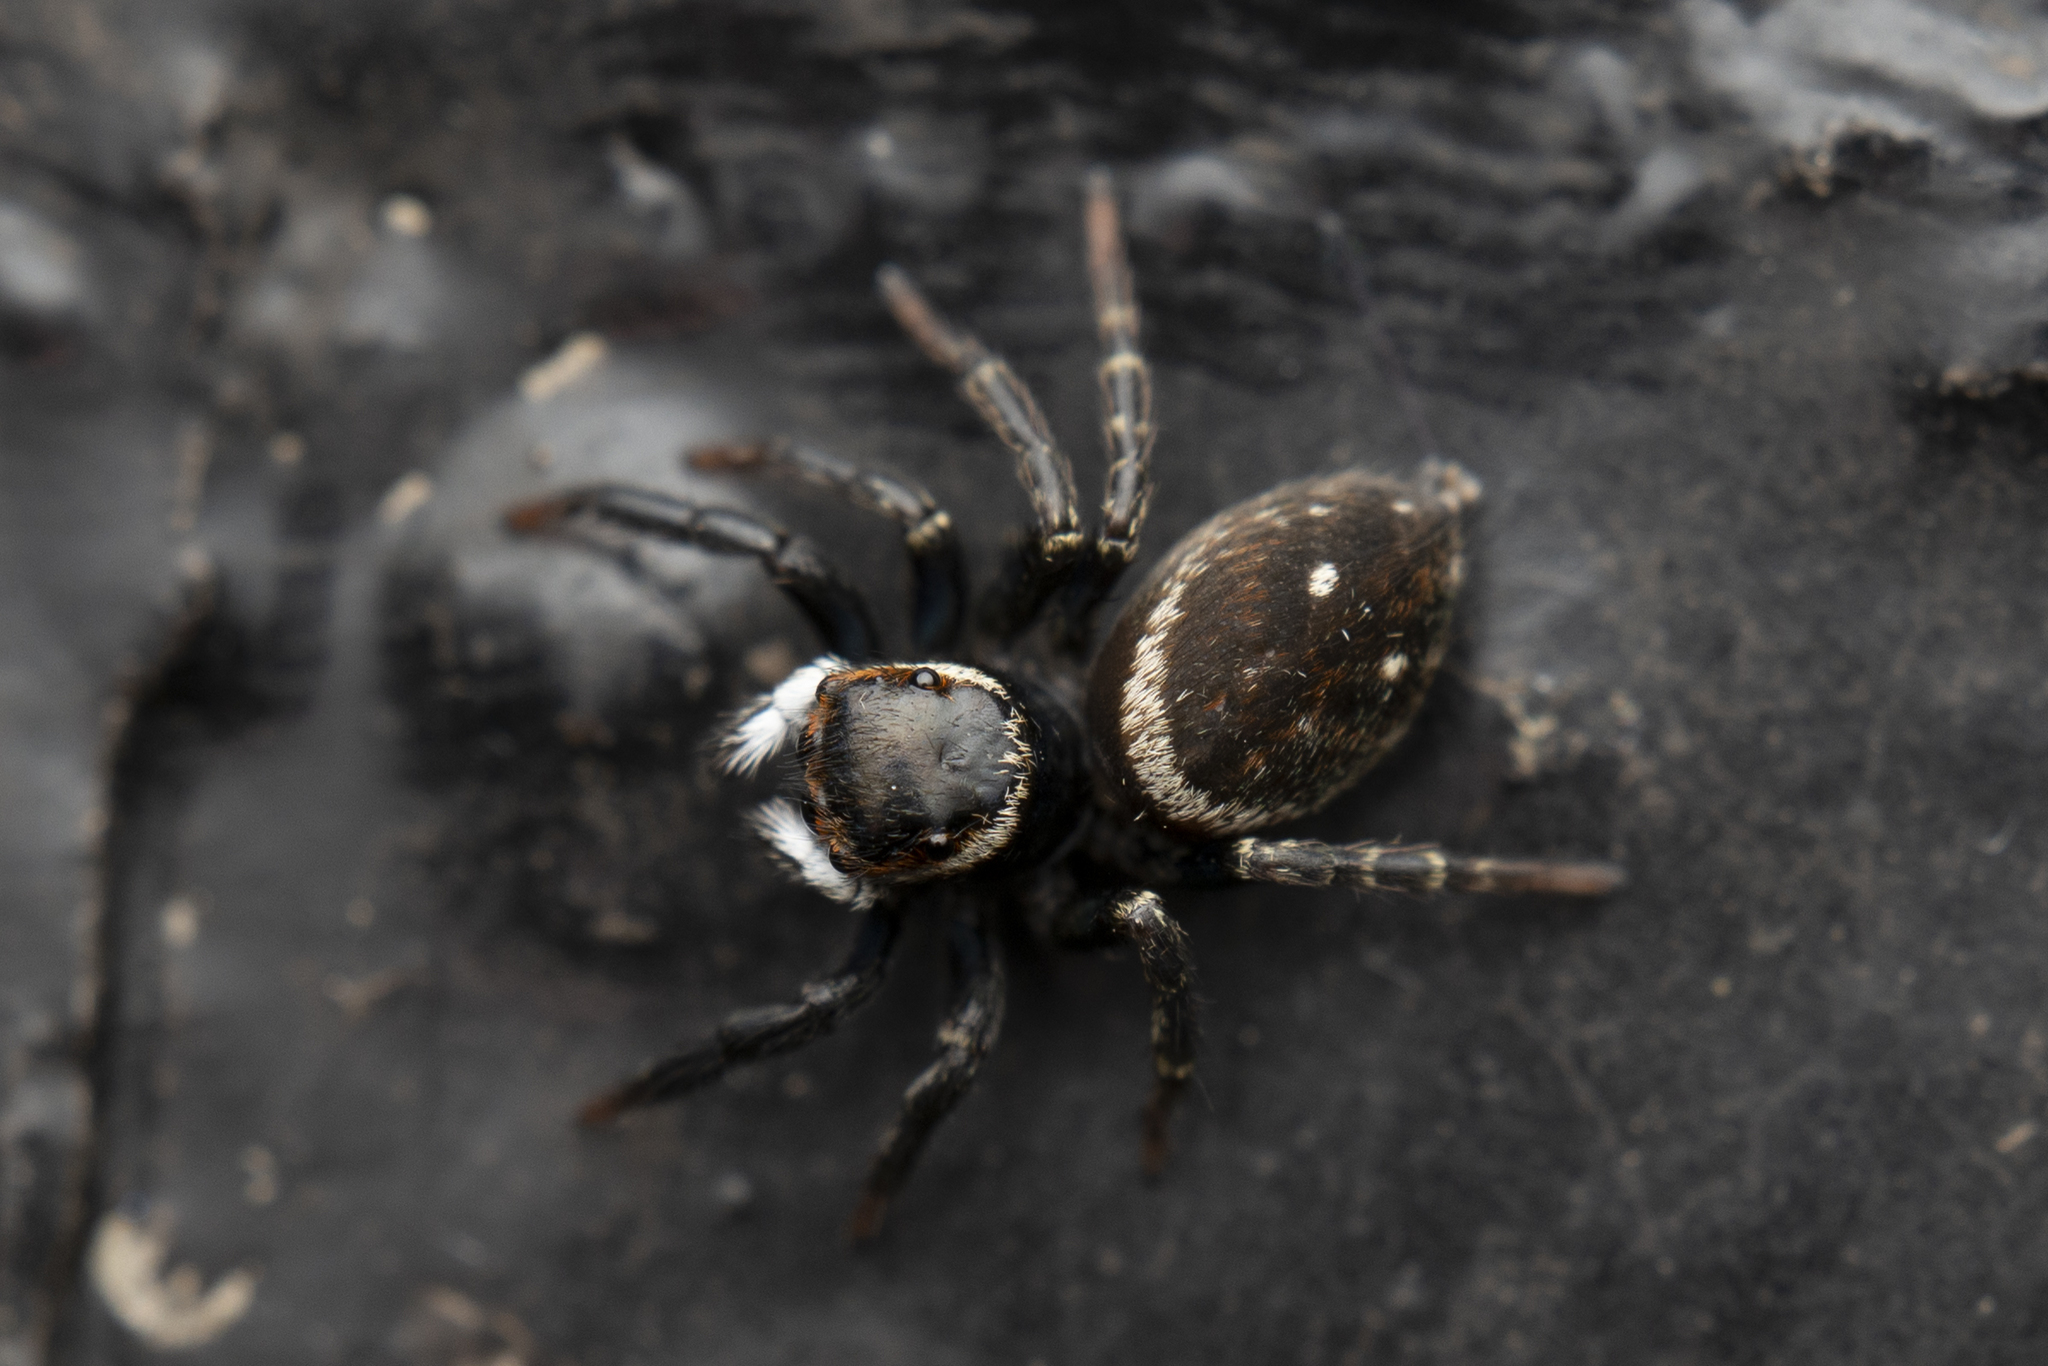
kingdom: Animalia
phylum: Arthropoda
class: Arachnida
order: Araneae
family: Salticidae
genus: Hasarius
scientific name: Hasarius adansoni
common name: Jumping spider
